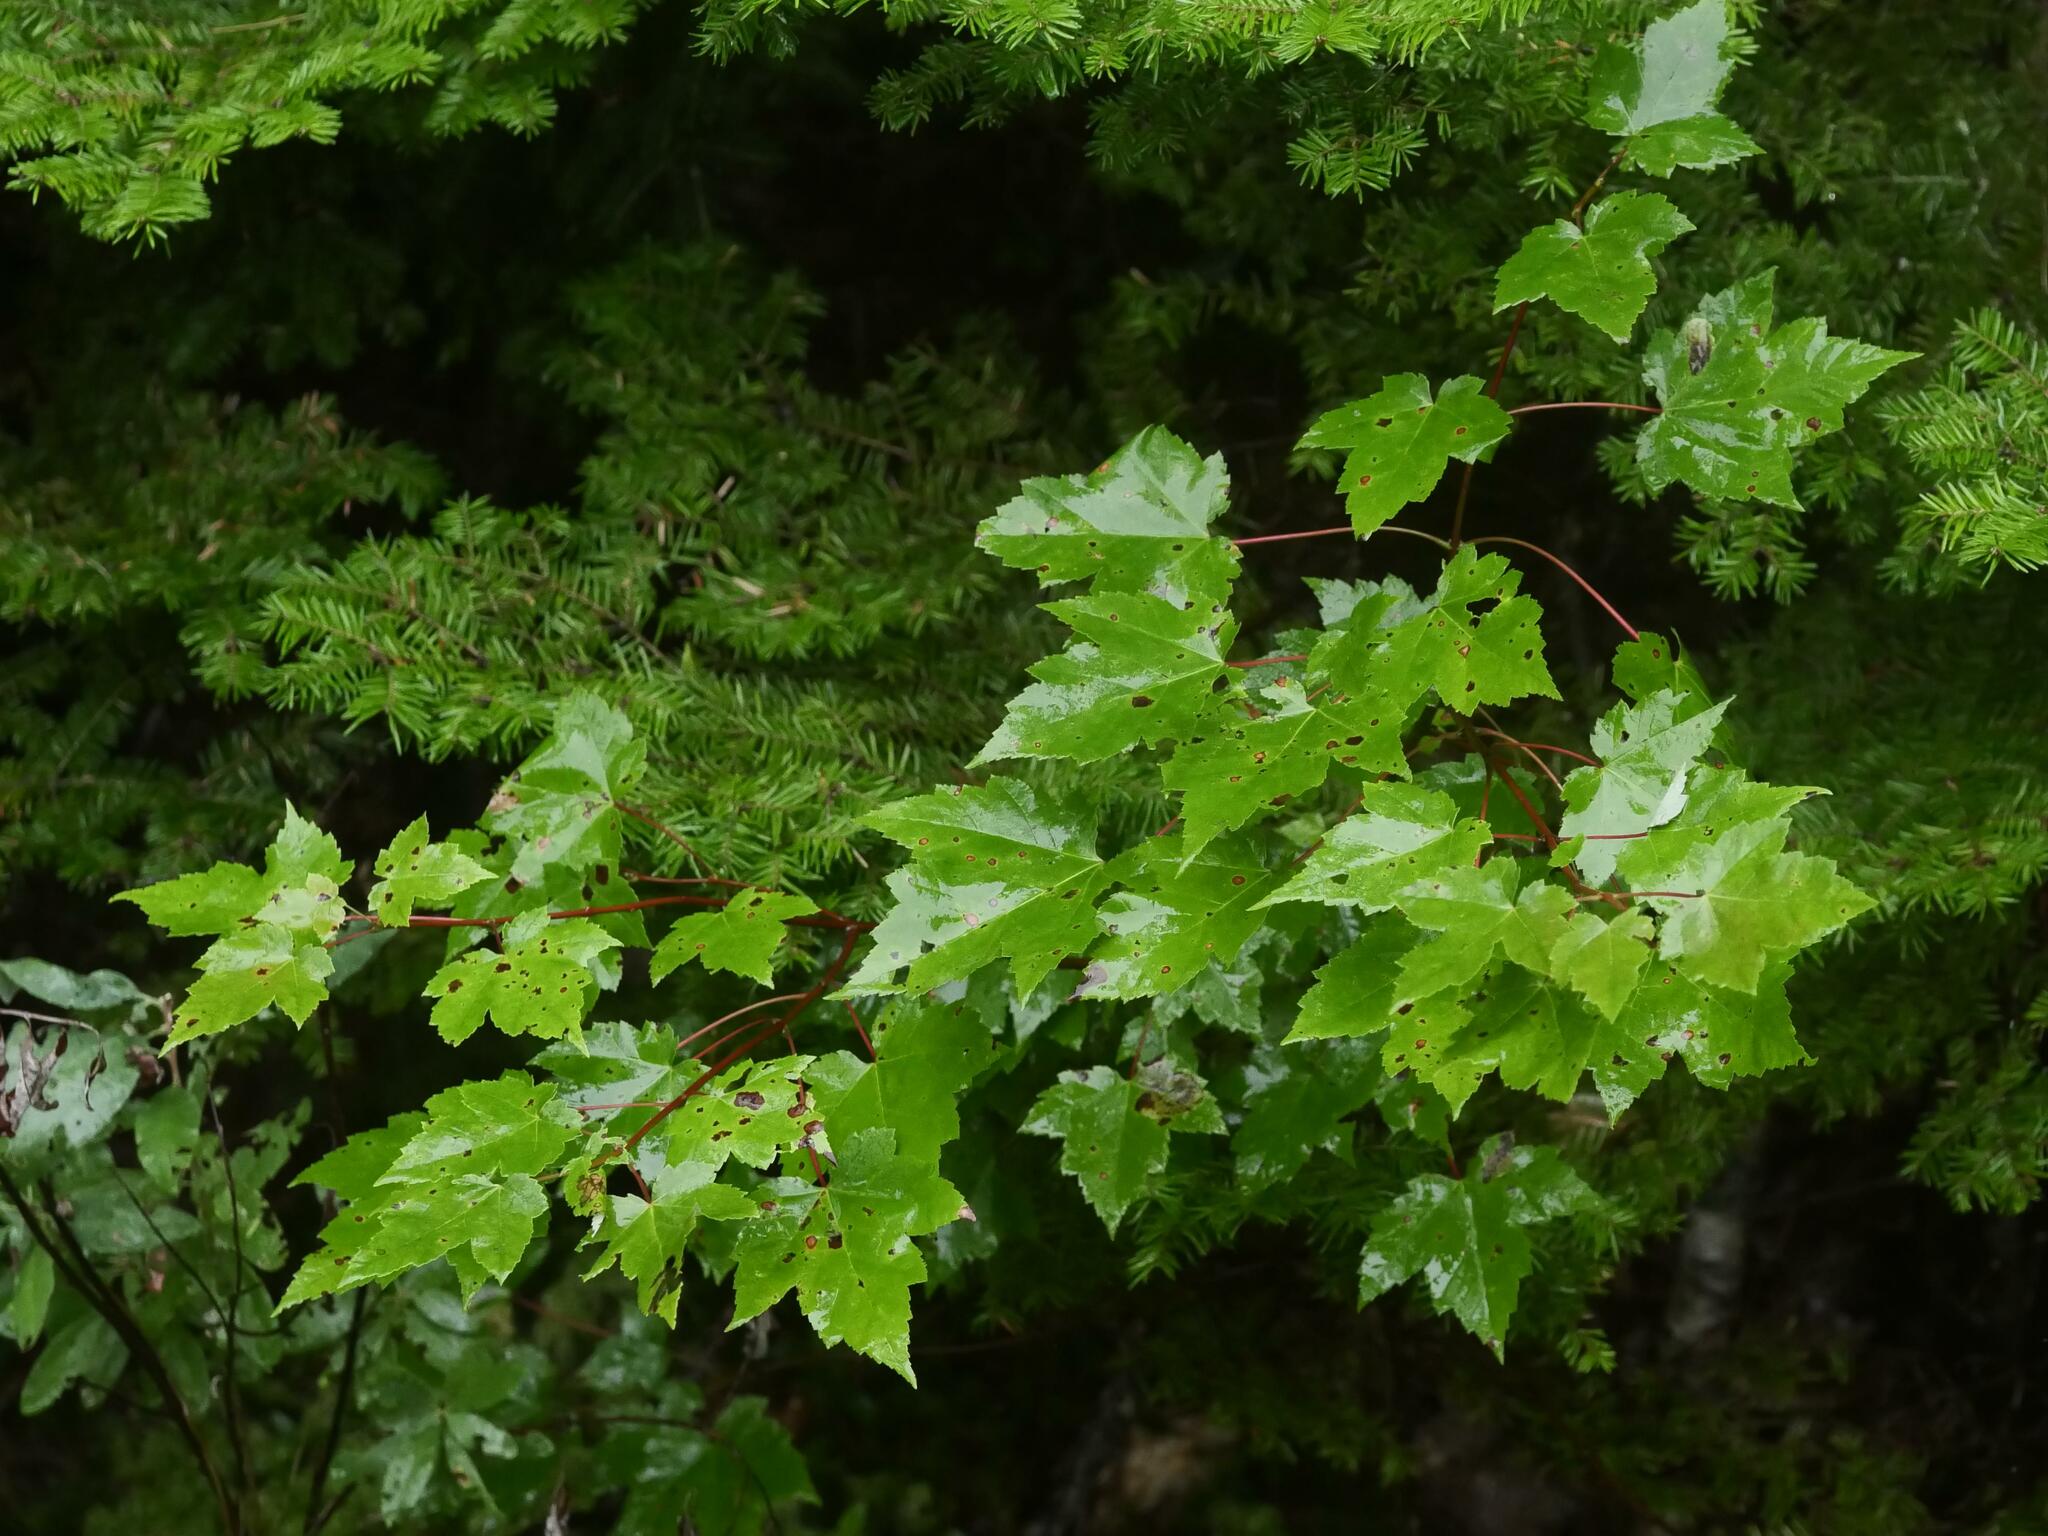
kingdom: Plantae
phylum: Tracheophyta
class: Magnoliopsida
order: Sapindales
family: Sapindaceae
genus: Acer
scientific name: Acer rubrum
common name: Red maple
